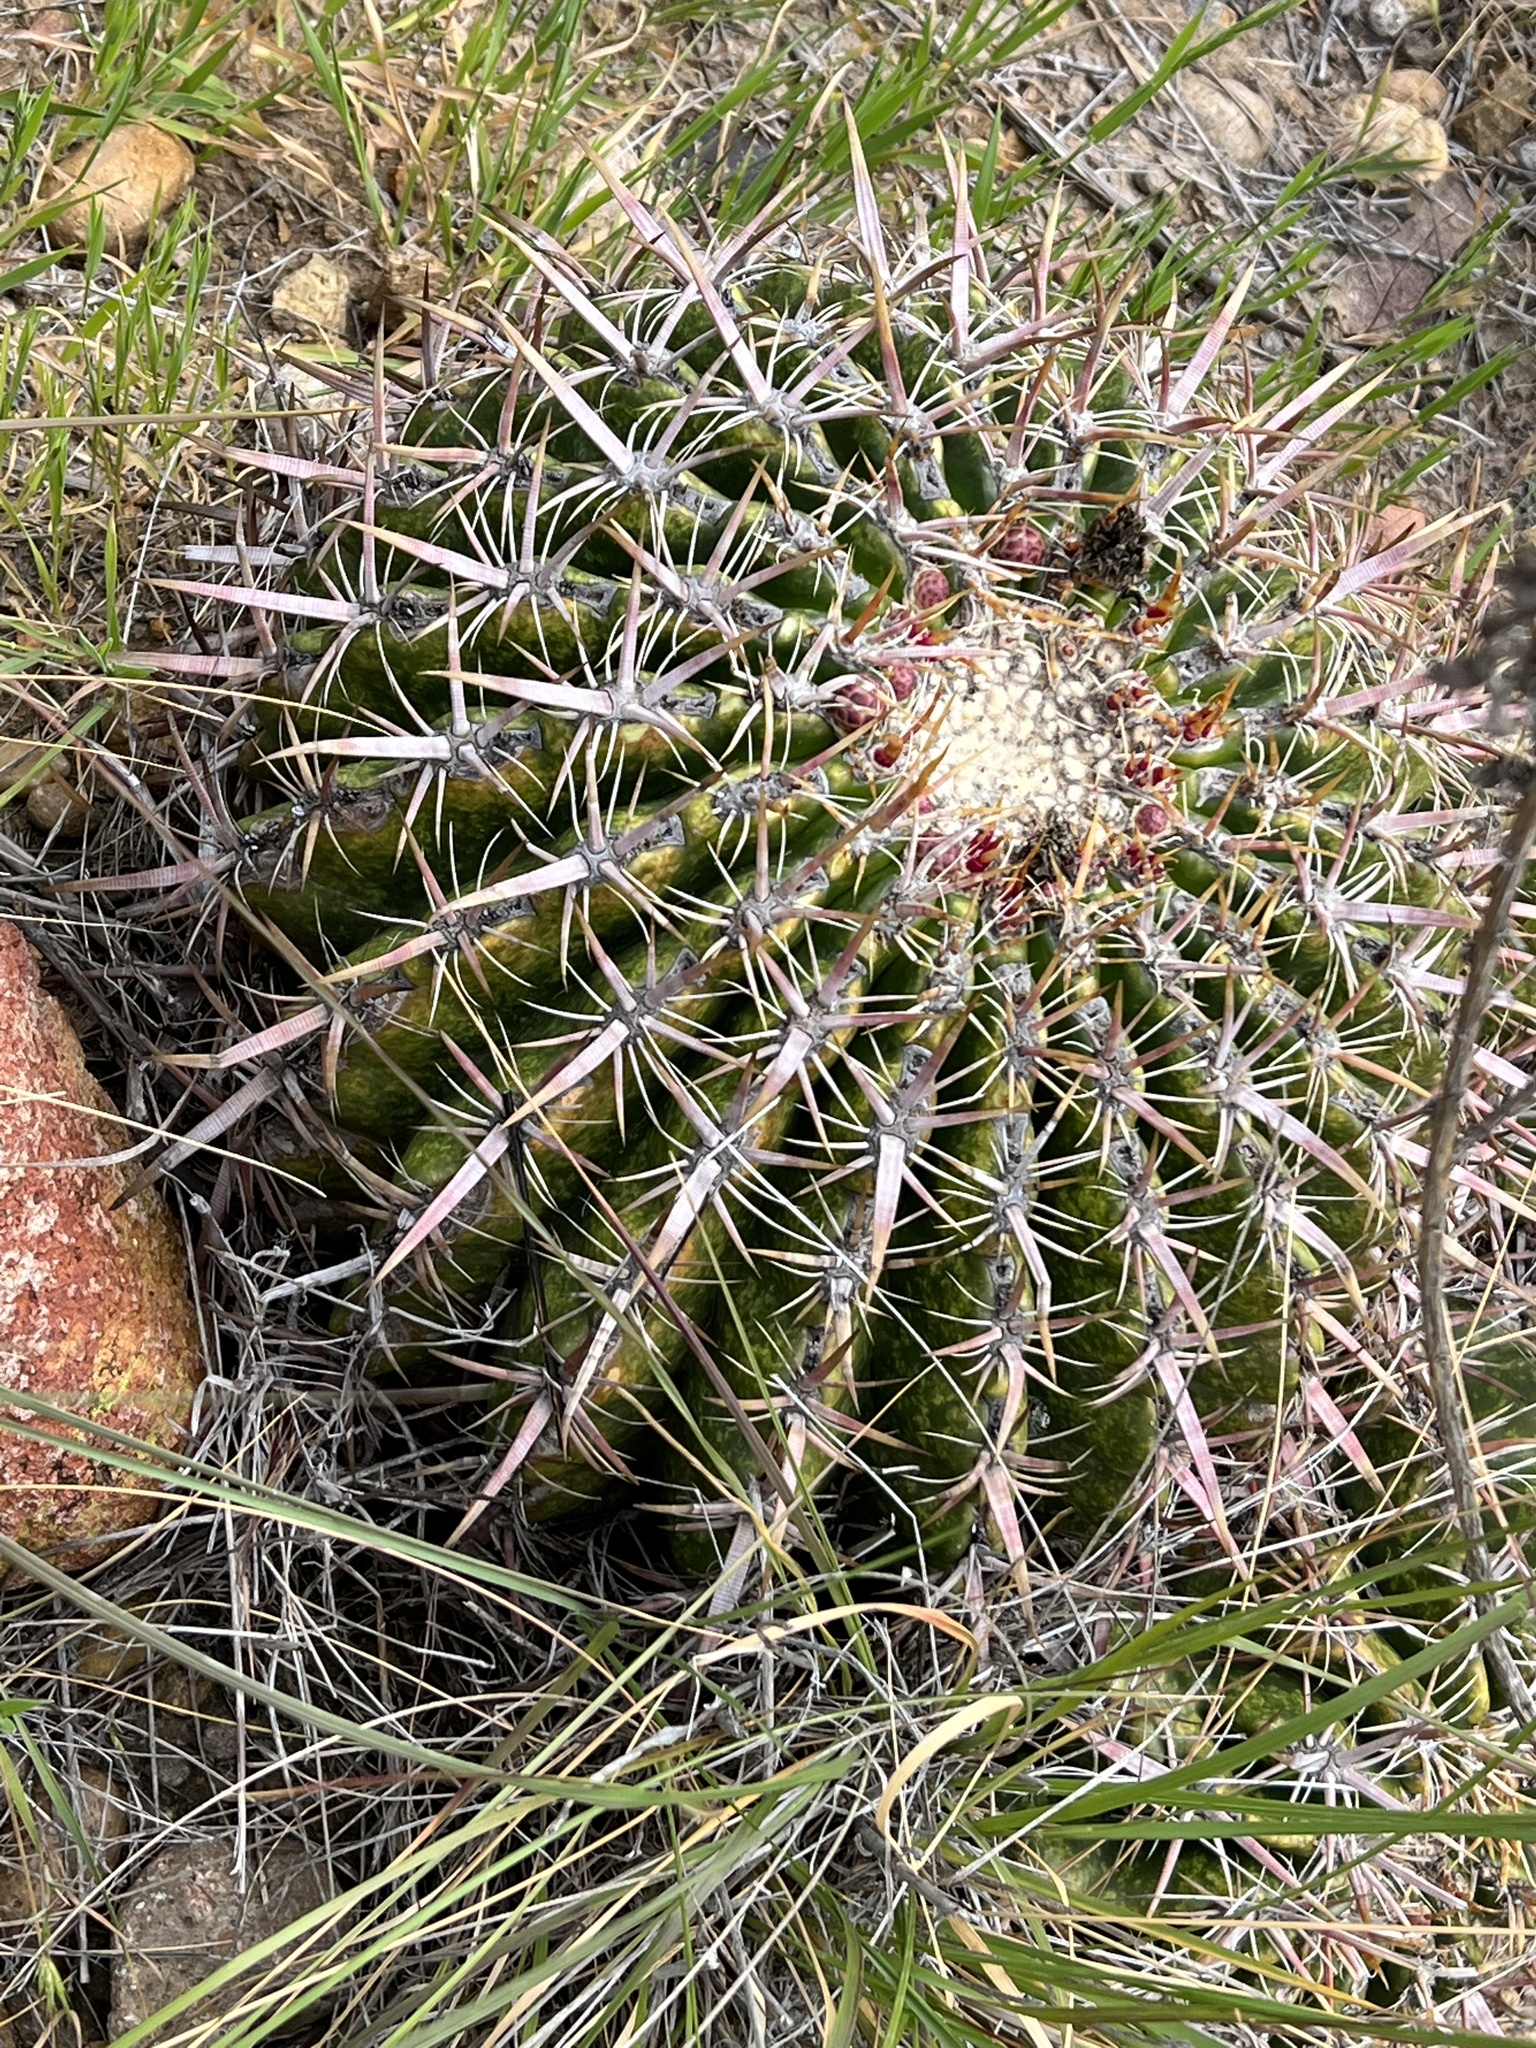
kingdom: Plantae
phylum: Tracheophyta
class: Magnoliopsida
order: Caryophyllales
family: Cactaceae
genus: Ferocactus
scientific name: Ferocactus viridescens
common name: San diego barrel cactus
